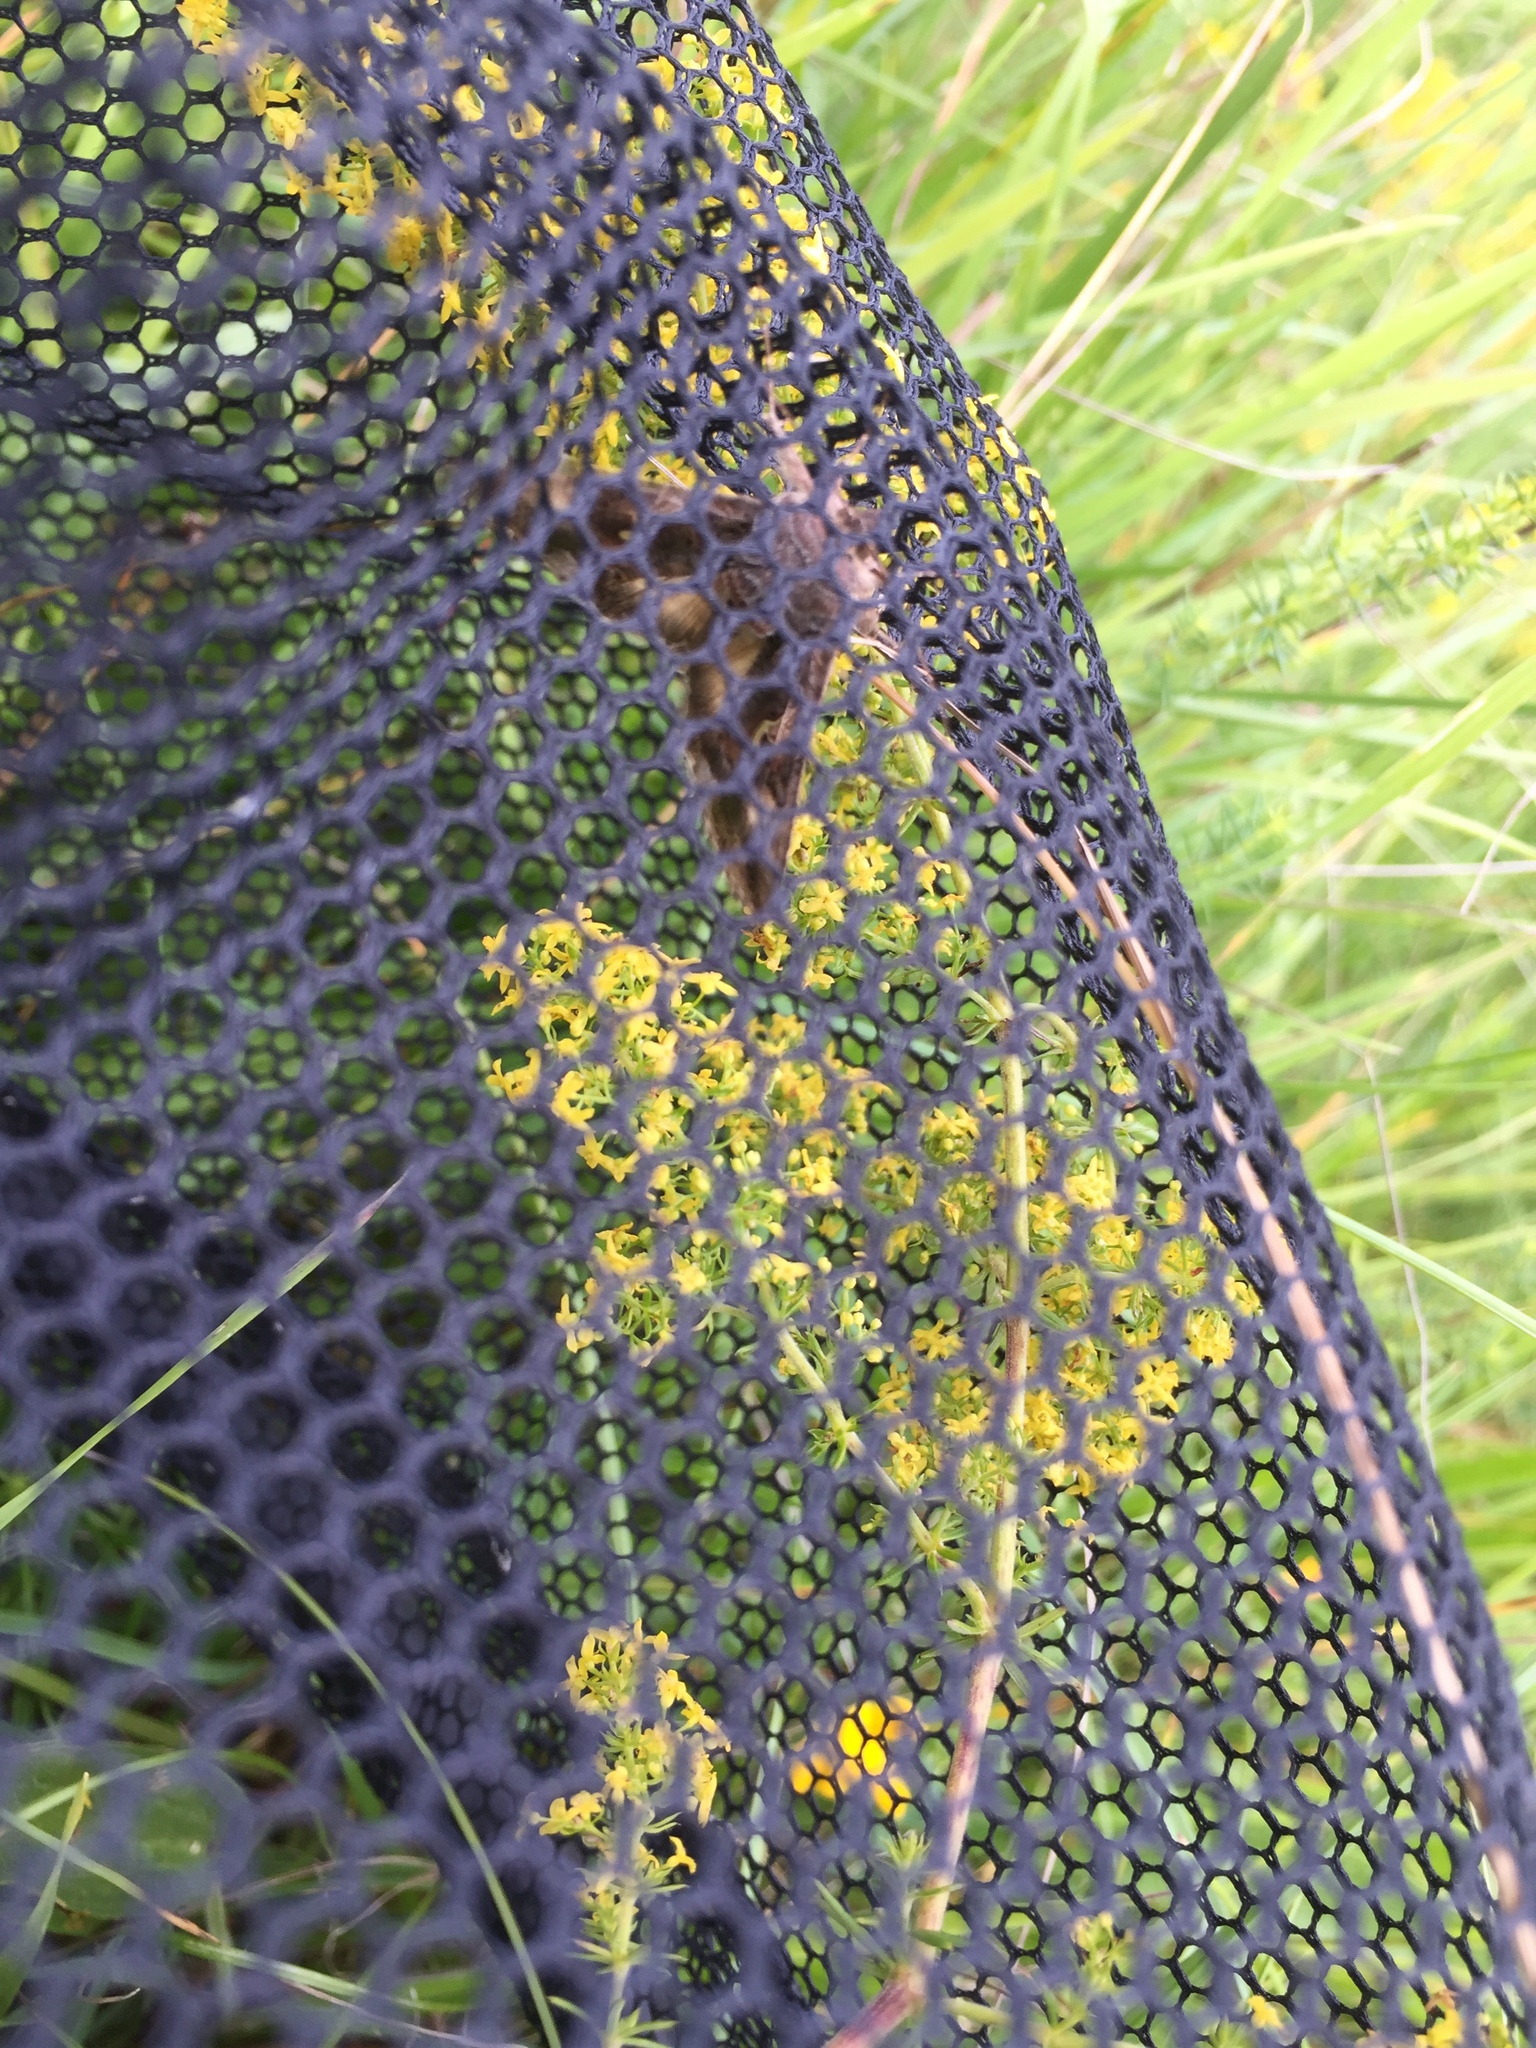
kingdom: Animalia
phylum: Arthropoda
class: Insecta
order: Lepidoptera
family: Noctuidae
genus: Autographa
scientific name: Autographa gamma
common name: Silver y
